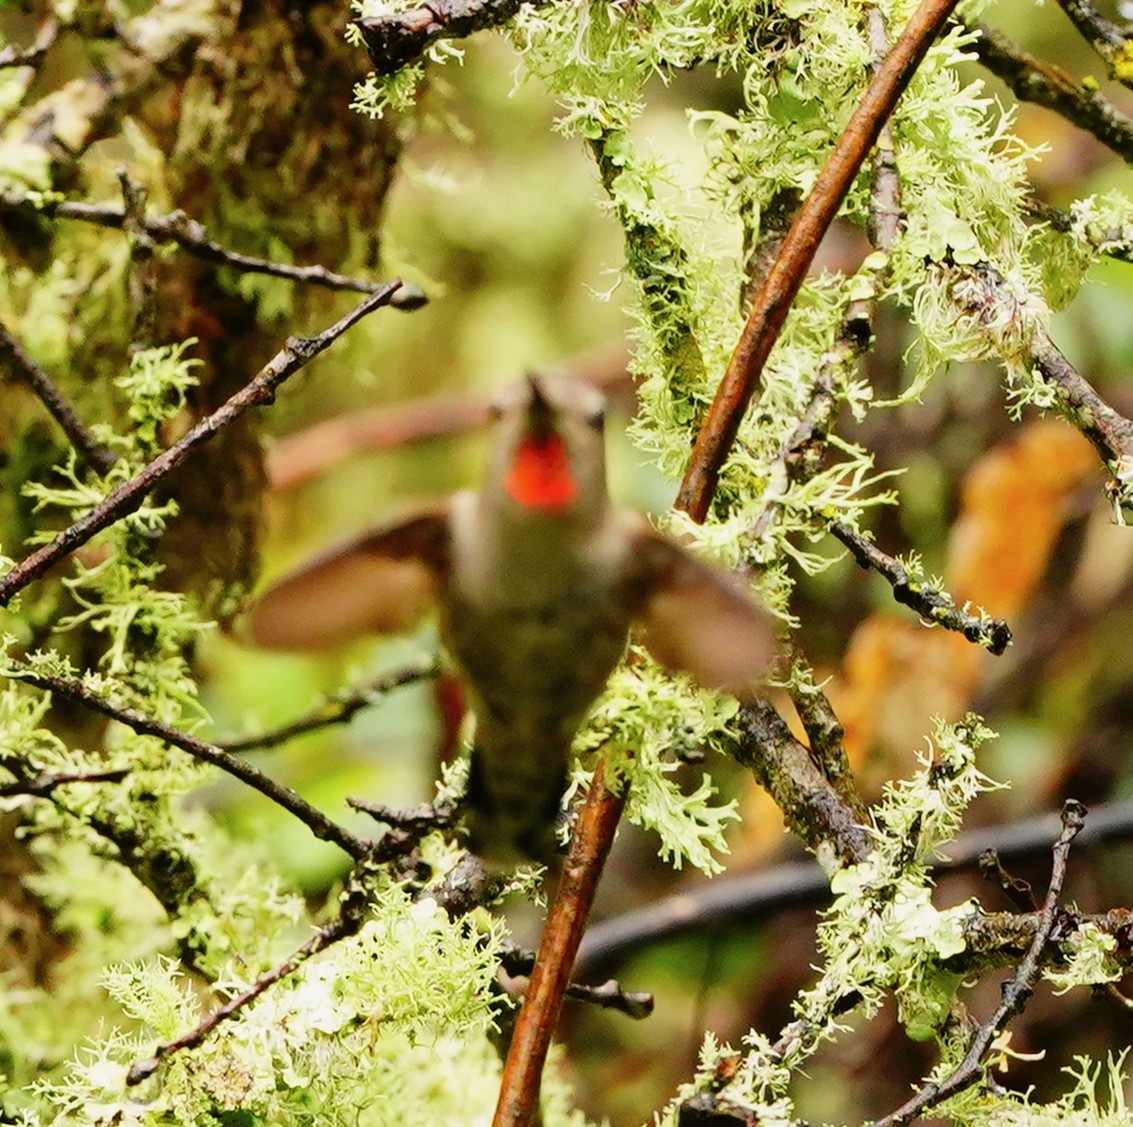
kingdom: Animalia
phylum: Chordata
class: Aves
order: Apodiformes
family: Trochilidae
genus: Calypte
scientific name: Calypte anna
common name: Anna's hummingbird
